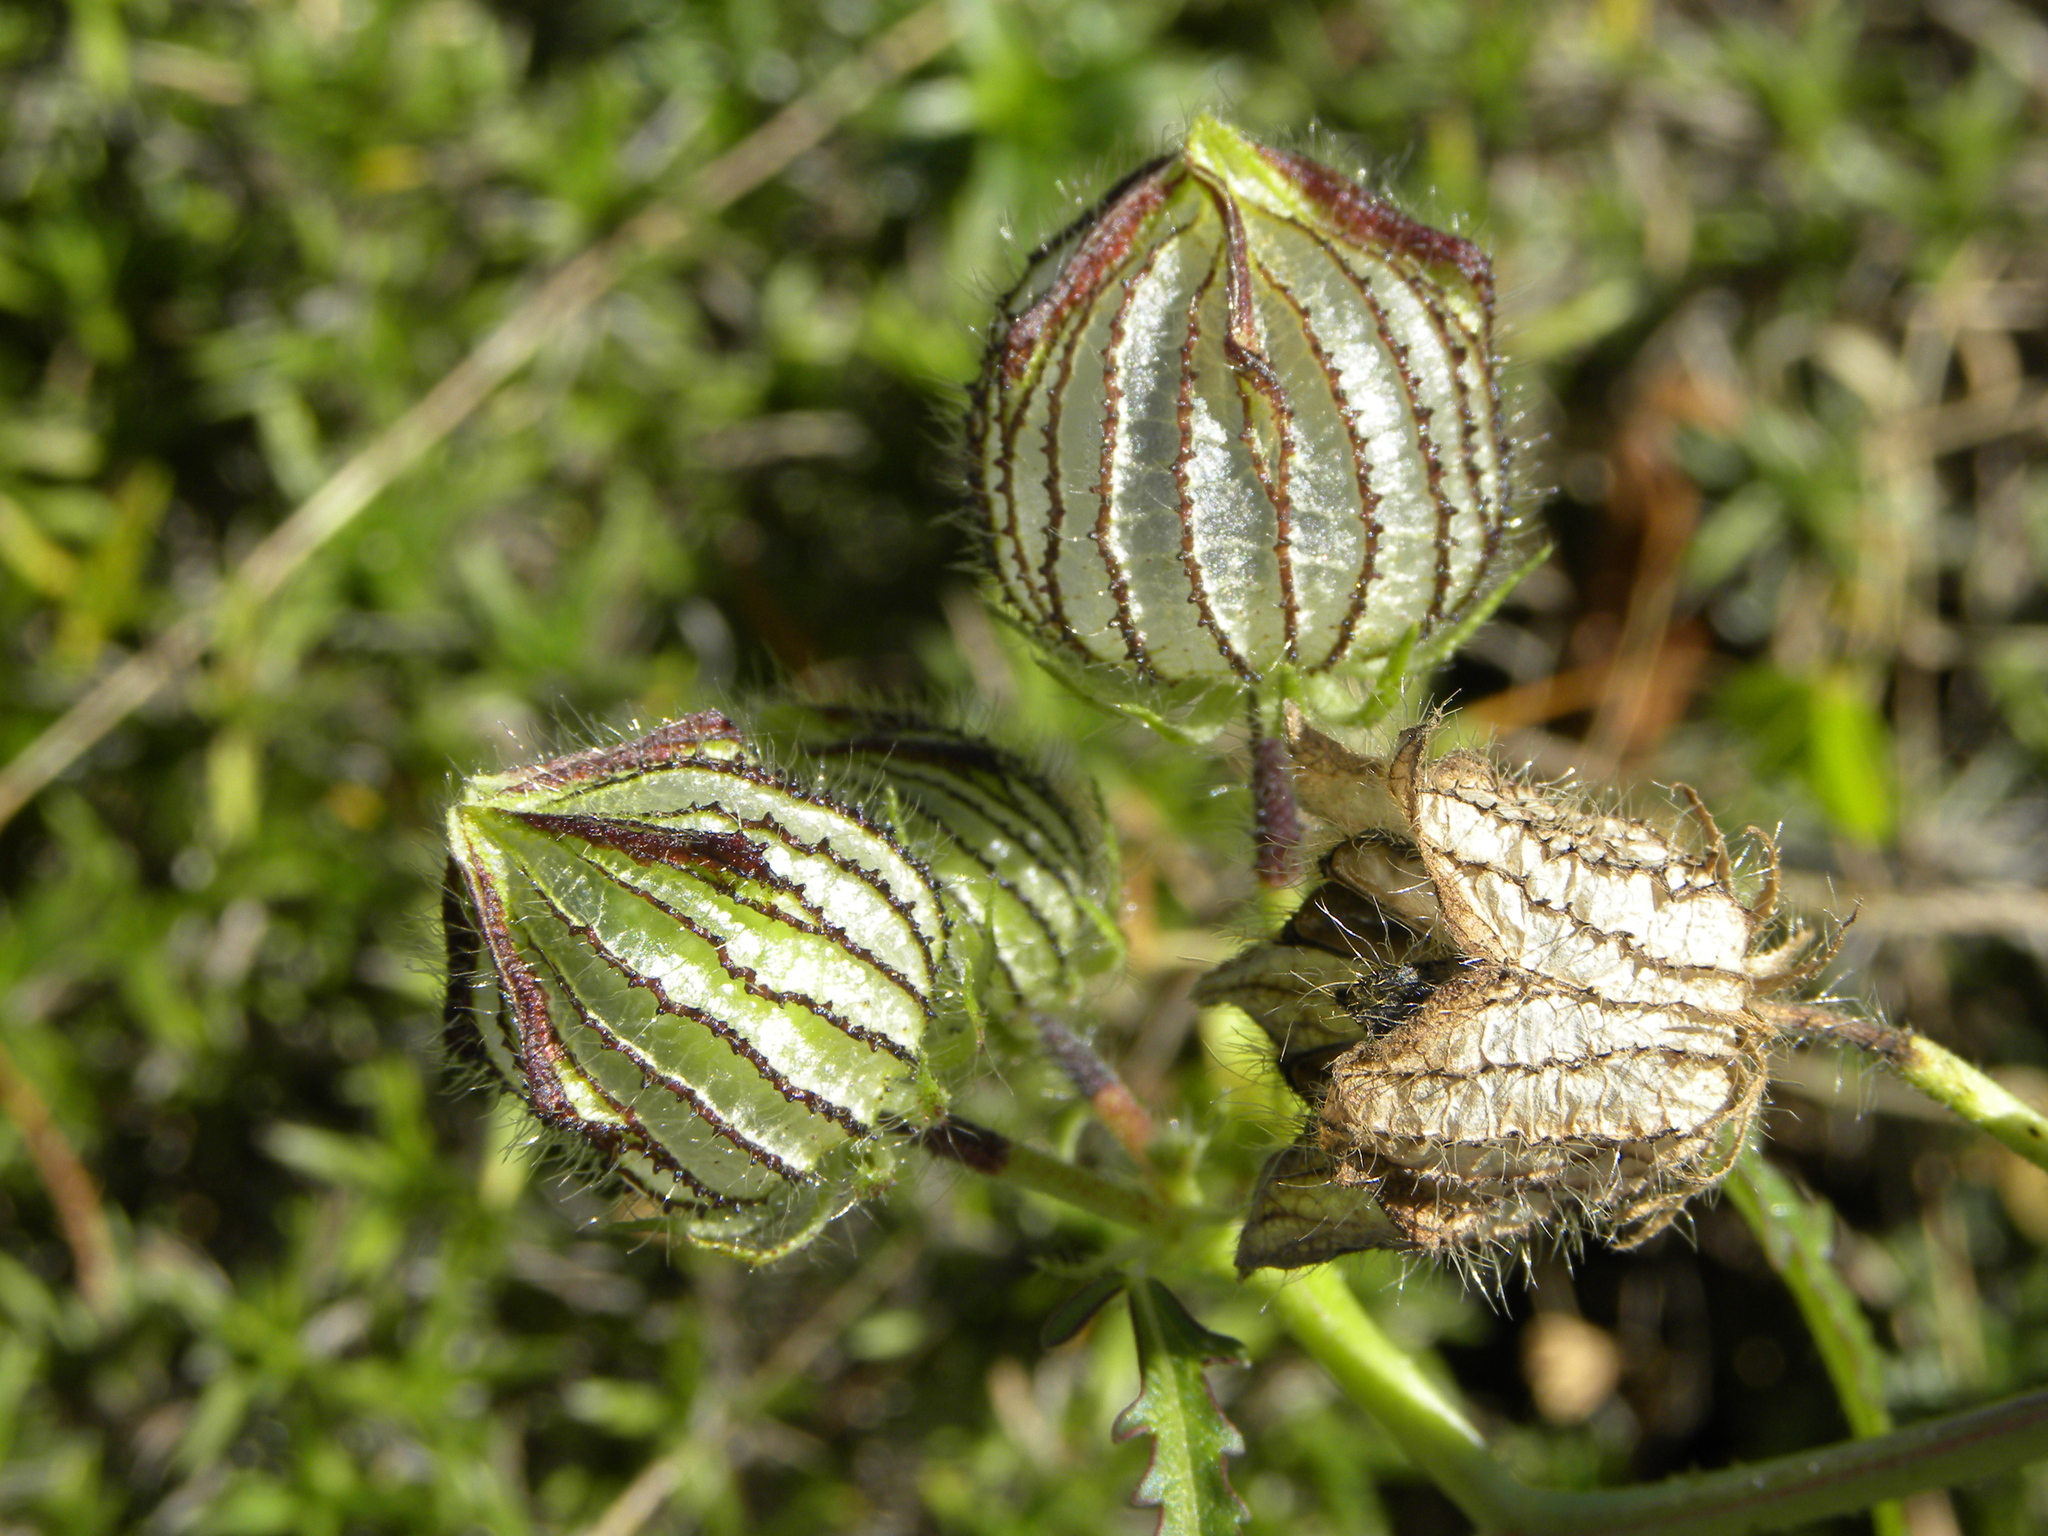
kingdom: Plantae
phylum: Tracheophyta
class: Magnoliopsida
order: Malvales
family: Malvaceae
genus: Hibiscus
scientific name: Hibiscus trionum
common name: Bladder ketmia
